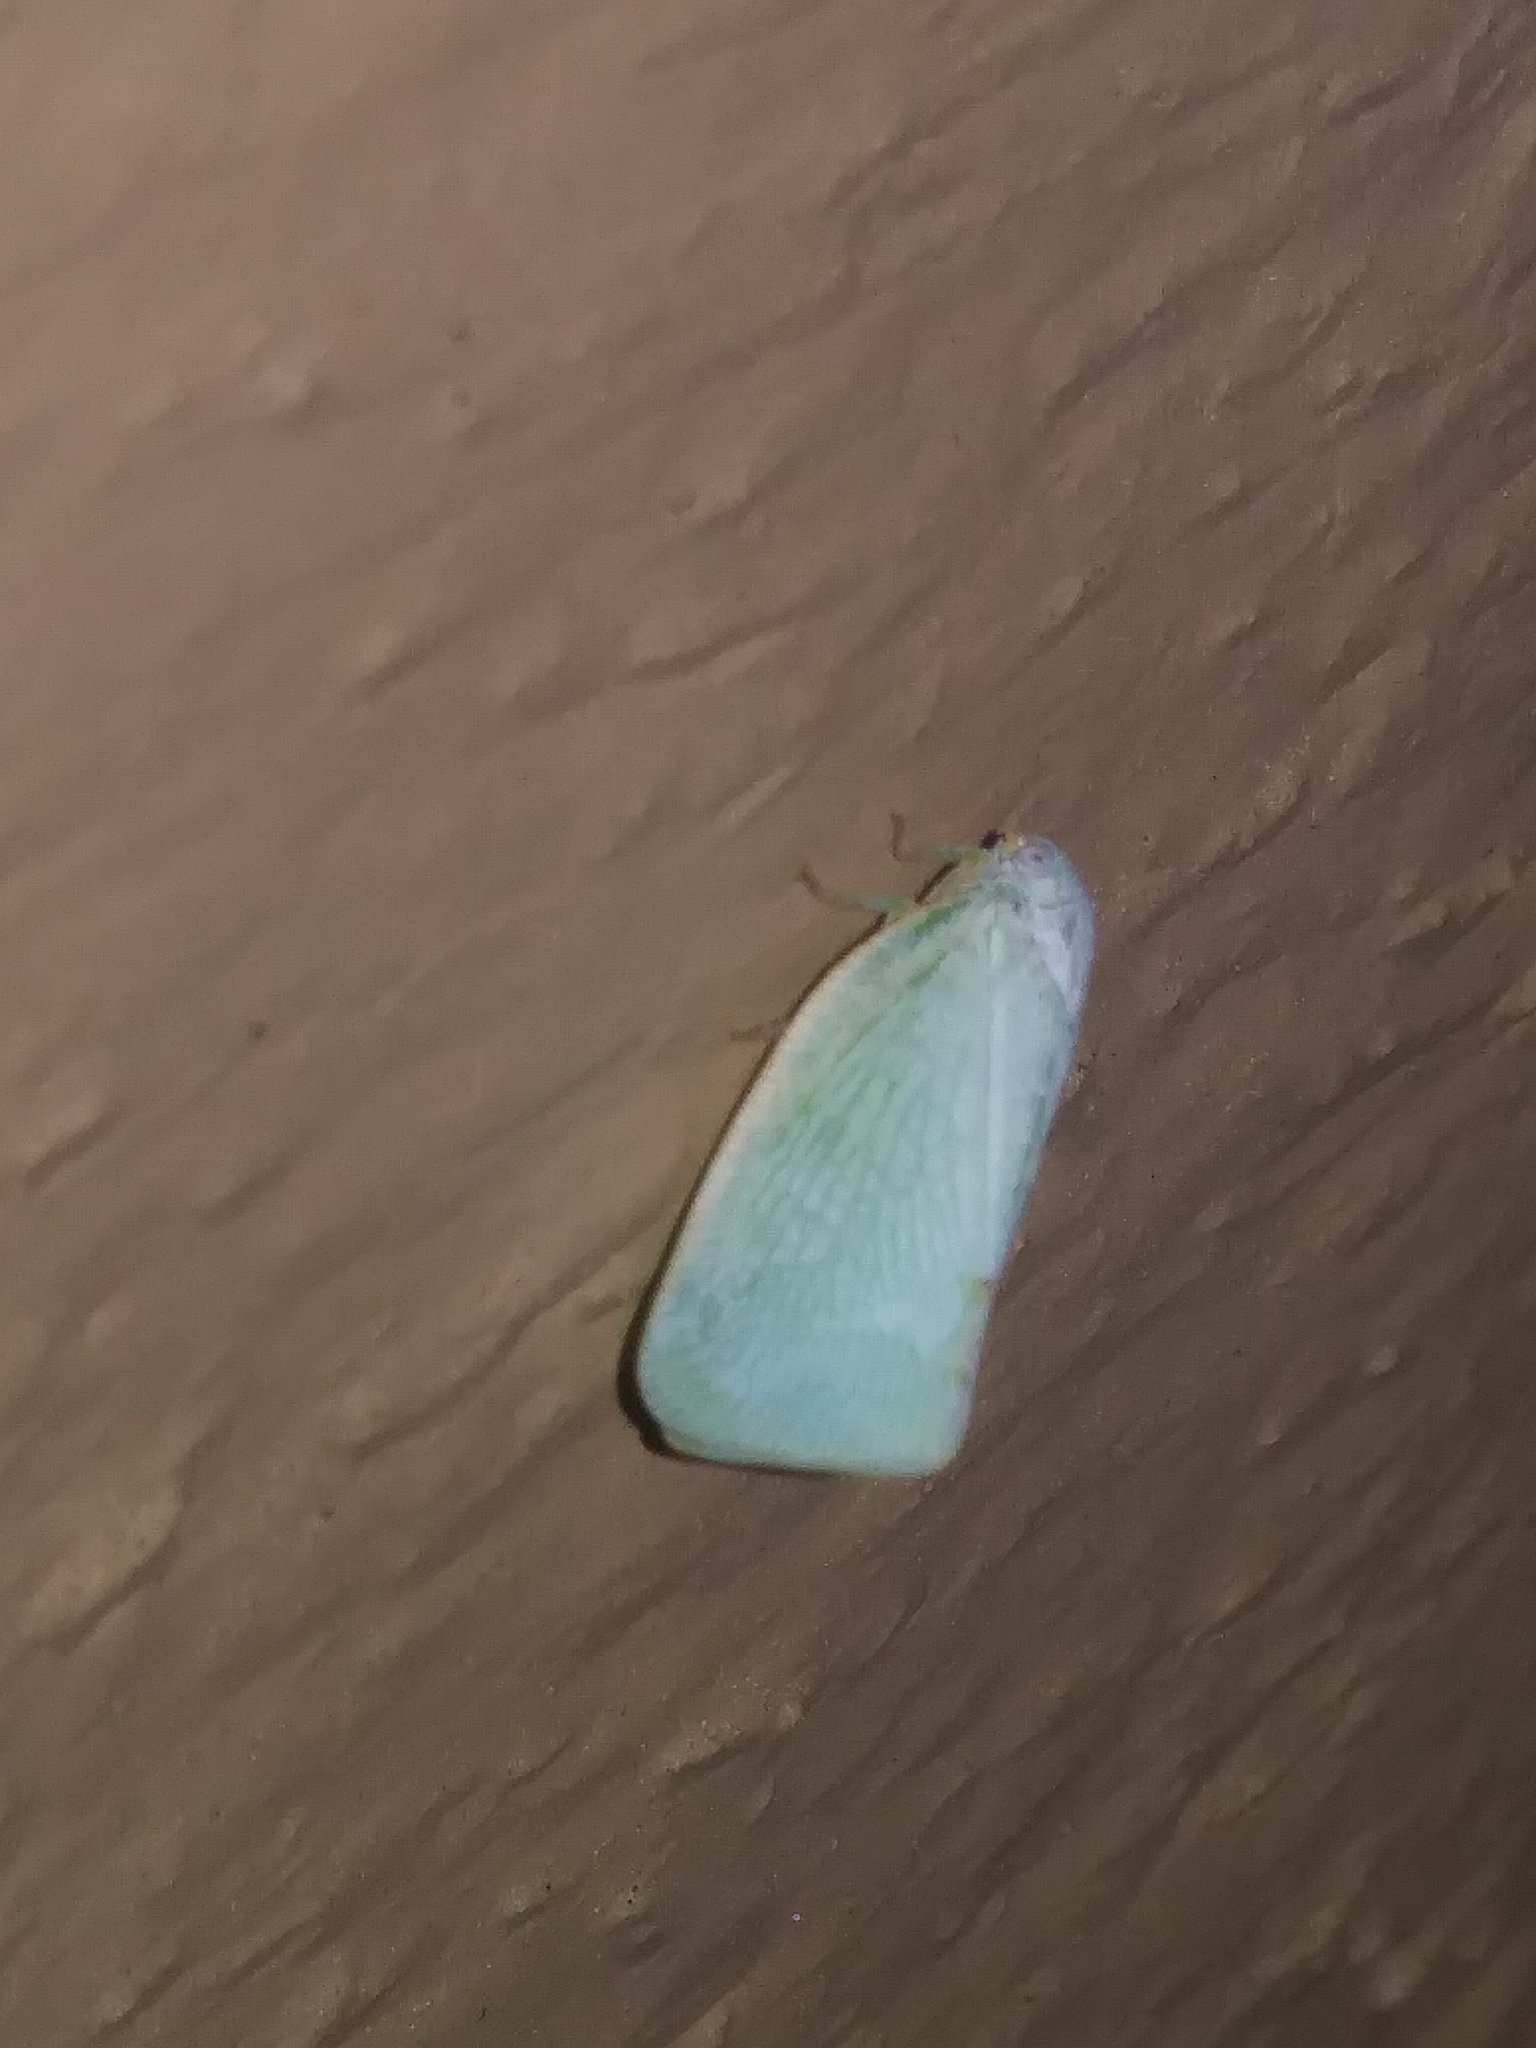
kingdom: Animalia
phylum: Arthropoda
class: Insecta
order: Hemiptera
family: Flatidae
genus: Flatormenis
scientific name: Flatormenis proxima
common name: Northern flatid planthopper
